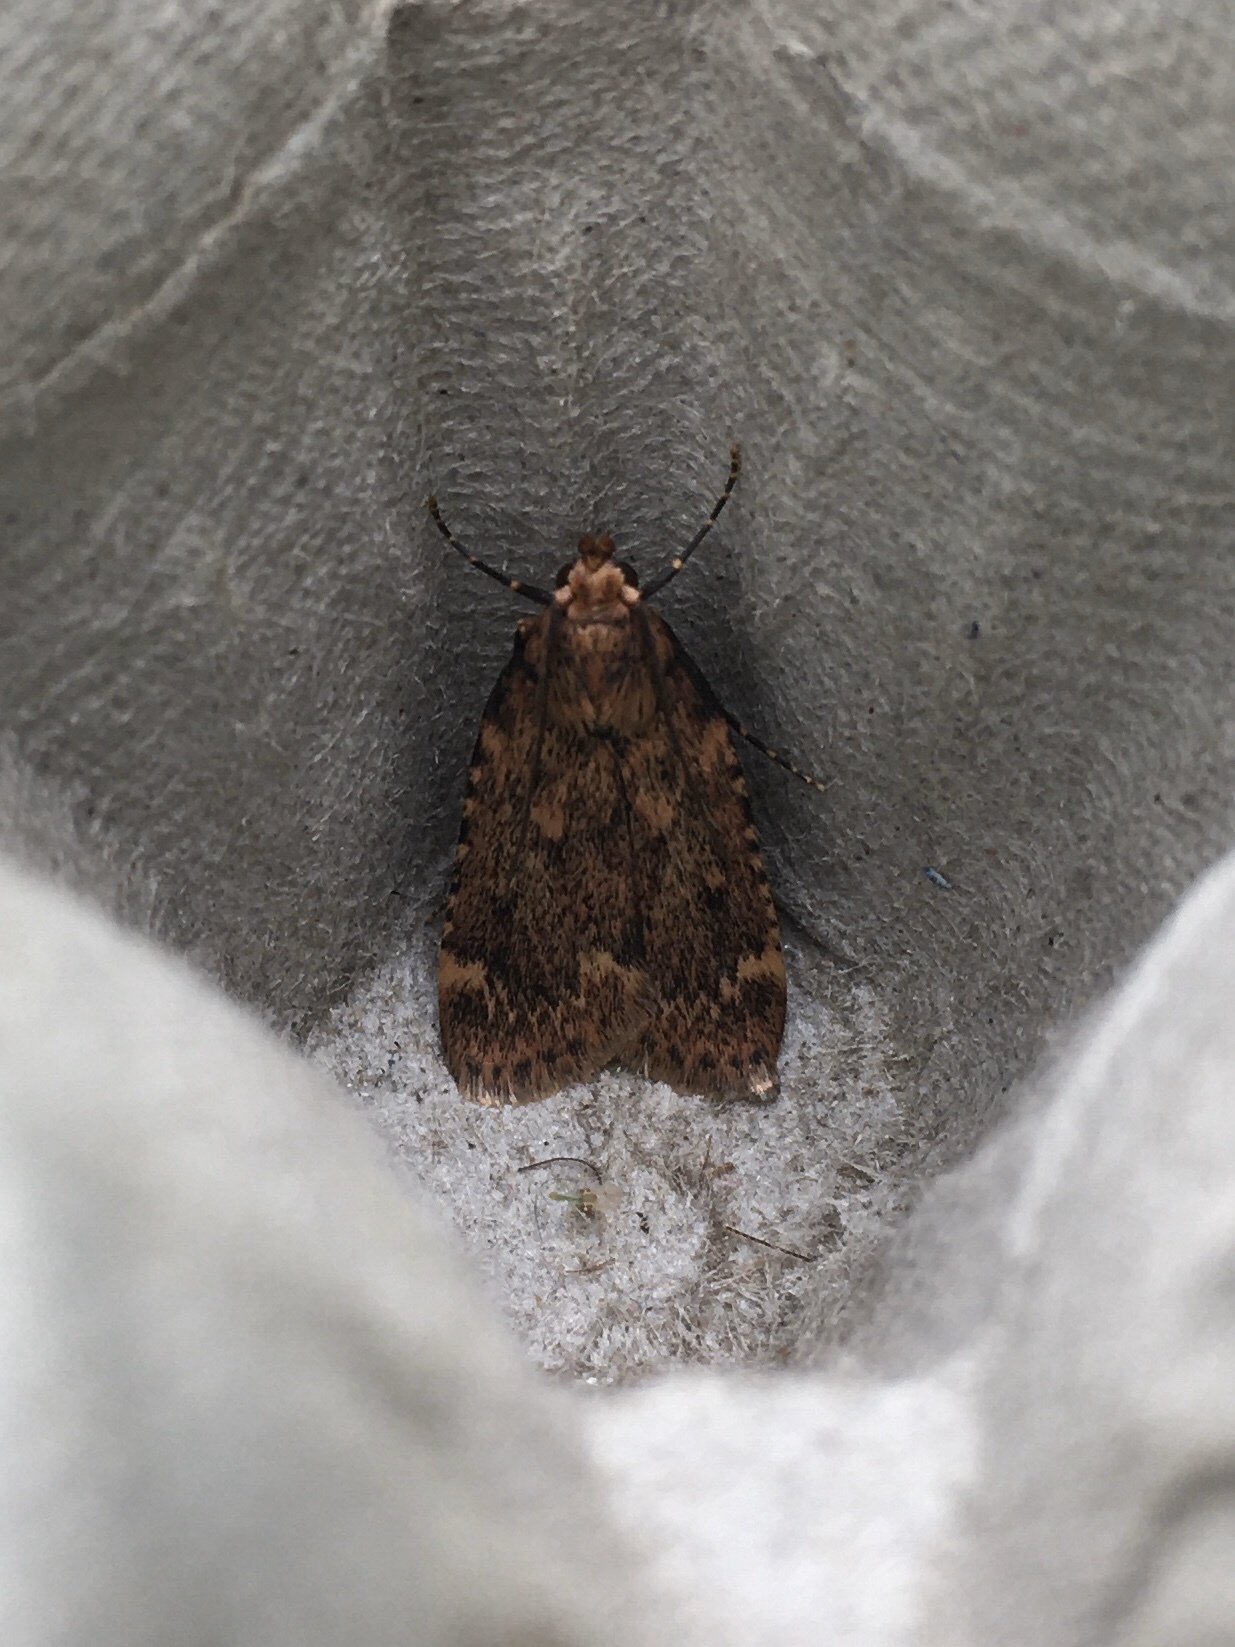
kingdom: Animalia
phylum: Arthropoda
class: Insecta
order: Lepidoptera
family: Pyralidae
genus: Aglossa
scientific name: Aglossa cuprina
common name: Grease moth
